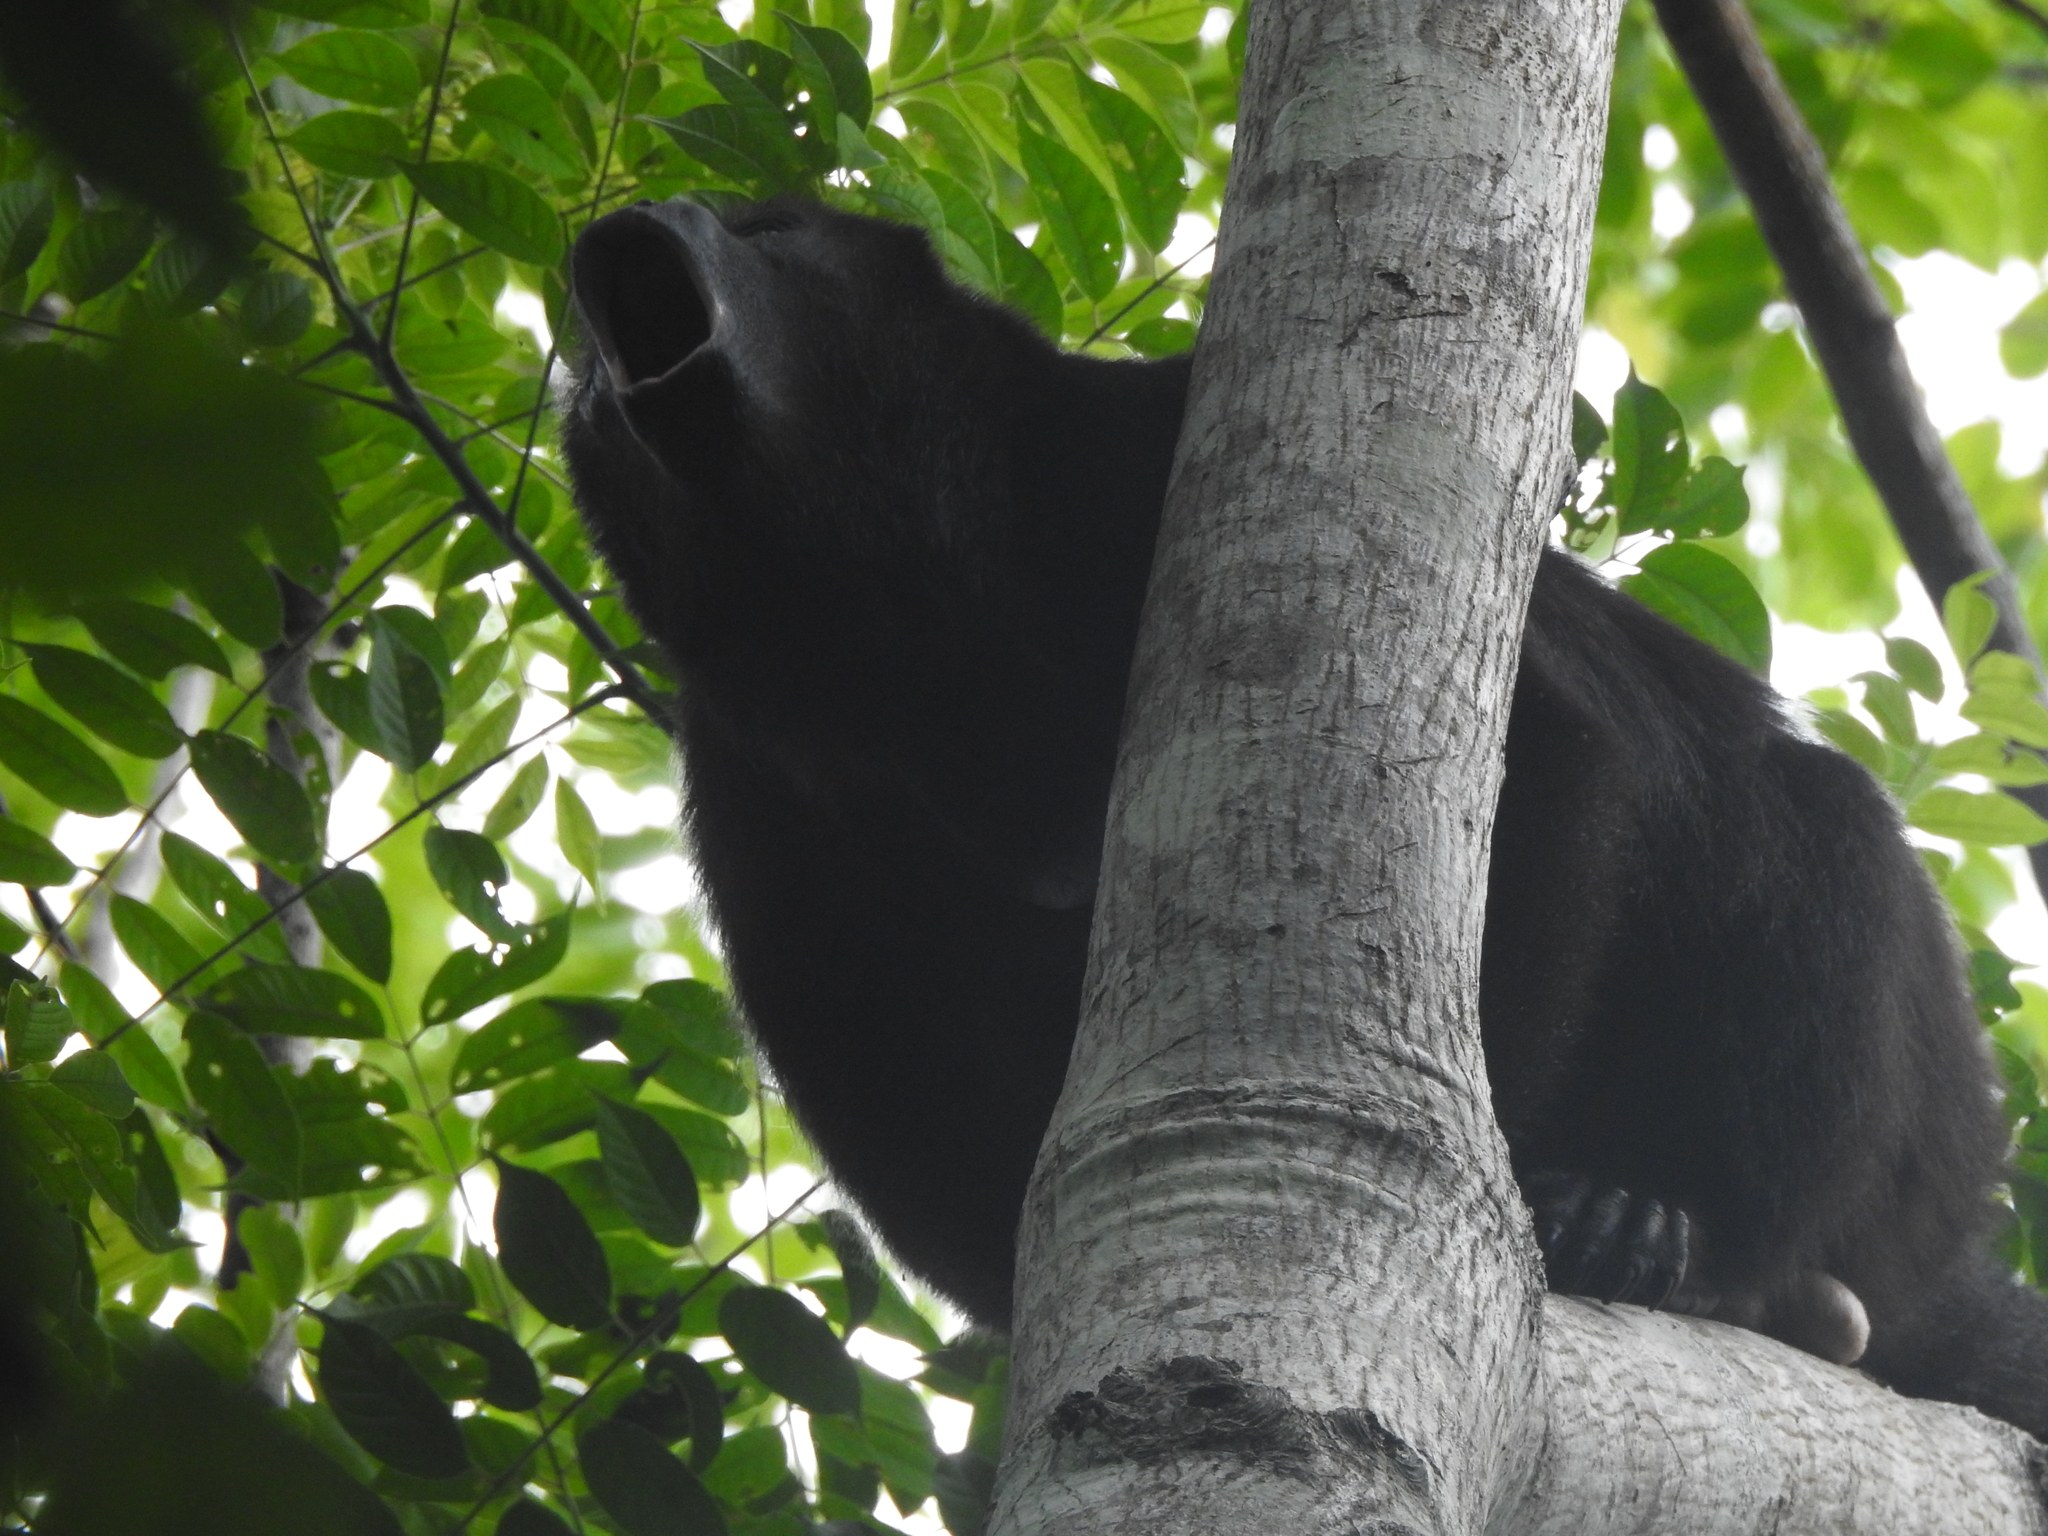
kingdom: Animalia
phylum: Chordata
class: Mammalia
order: Primates
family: Atelidae
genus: Alouatta
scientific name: Alouatta pigra
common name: Guatemalan black howler
